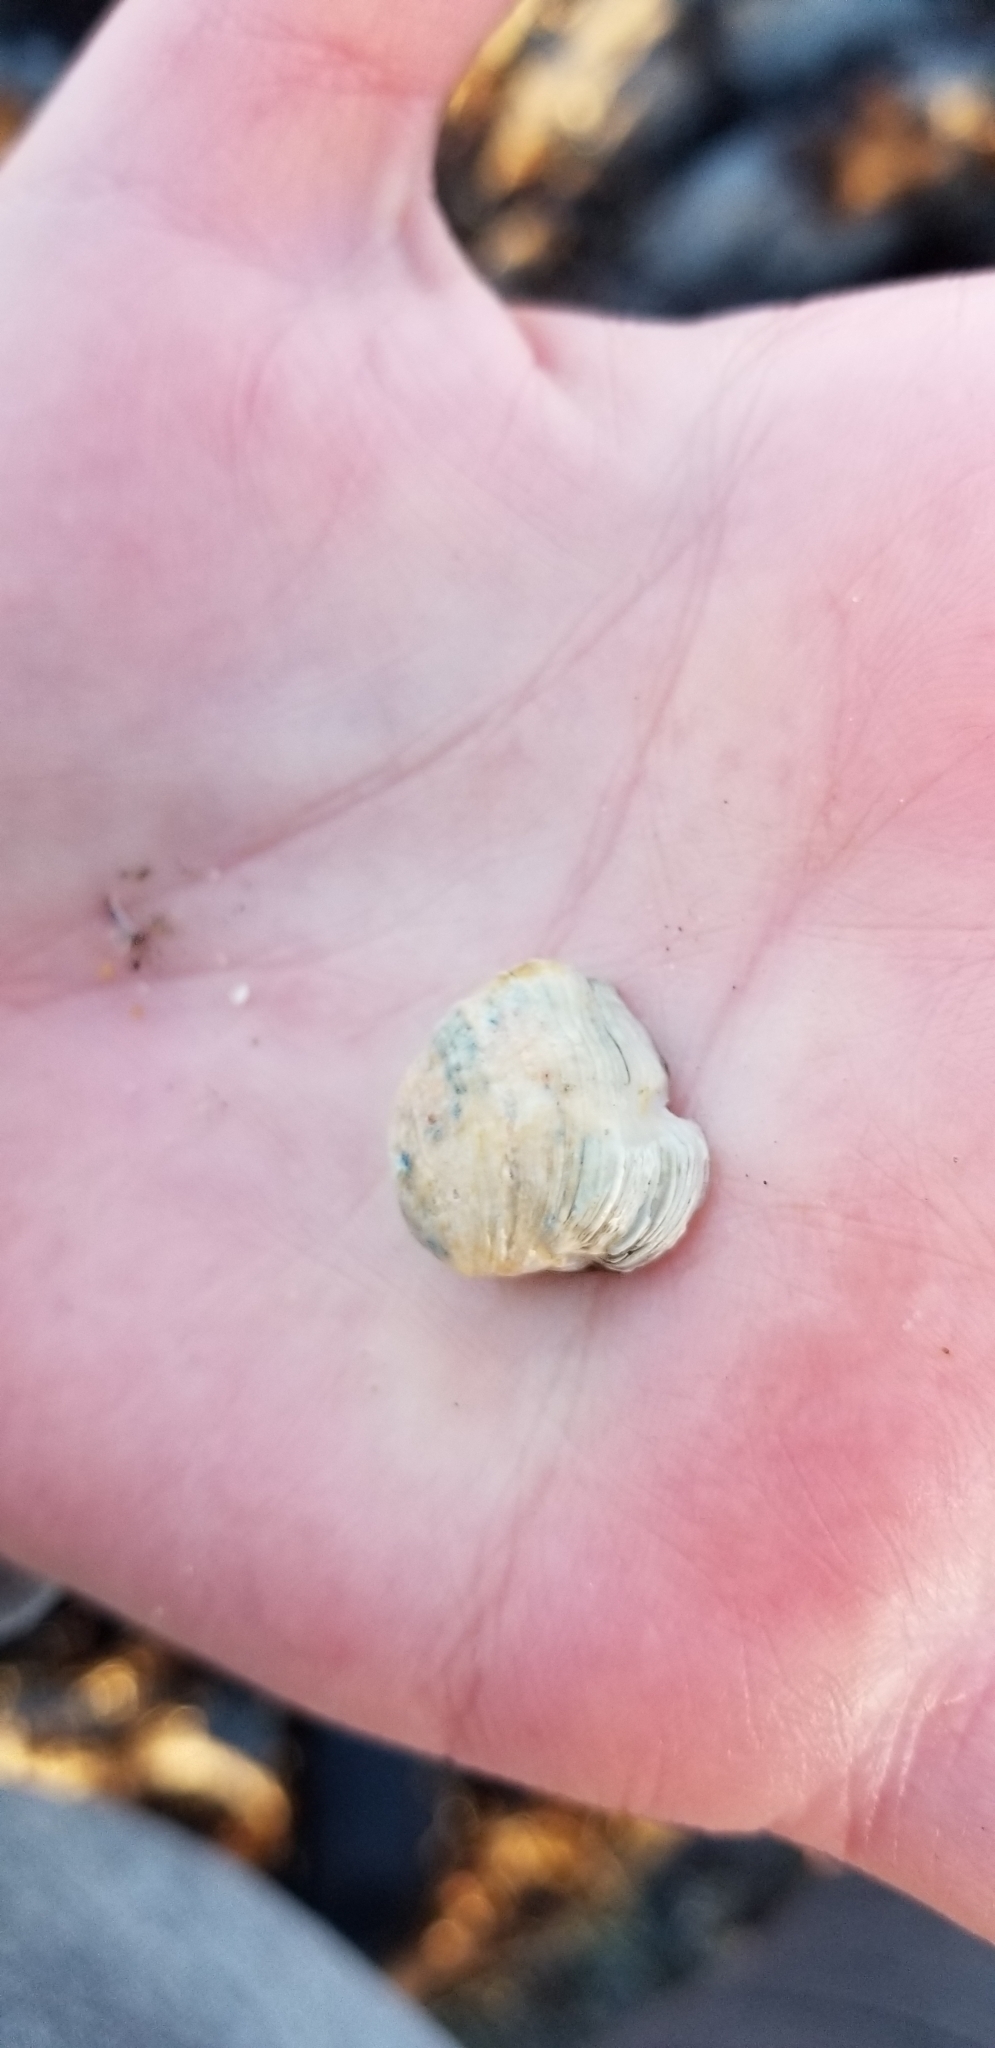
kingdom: Animalia
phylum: Mollusca
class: Bivalvia
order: Venerida
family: Veneridae
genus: Petricola
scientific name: Petricola carditoides
